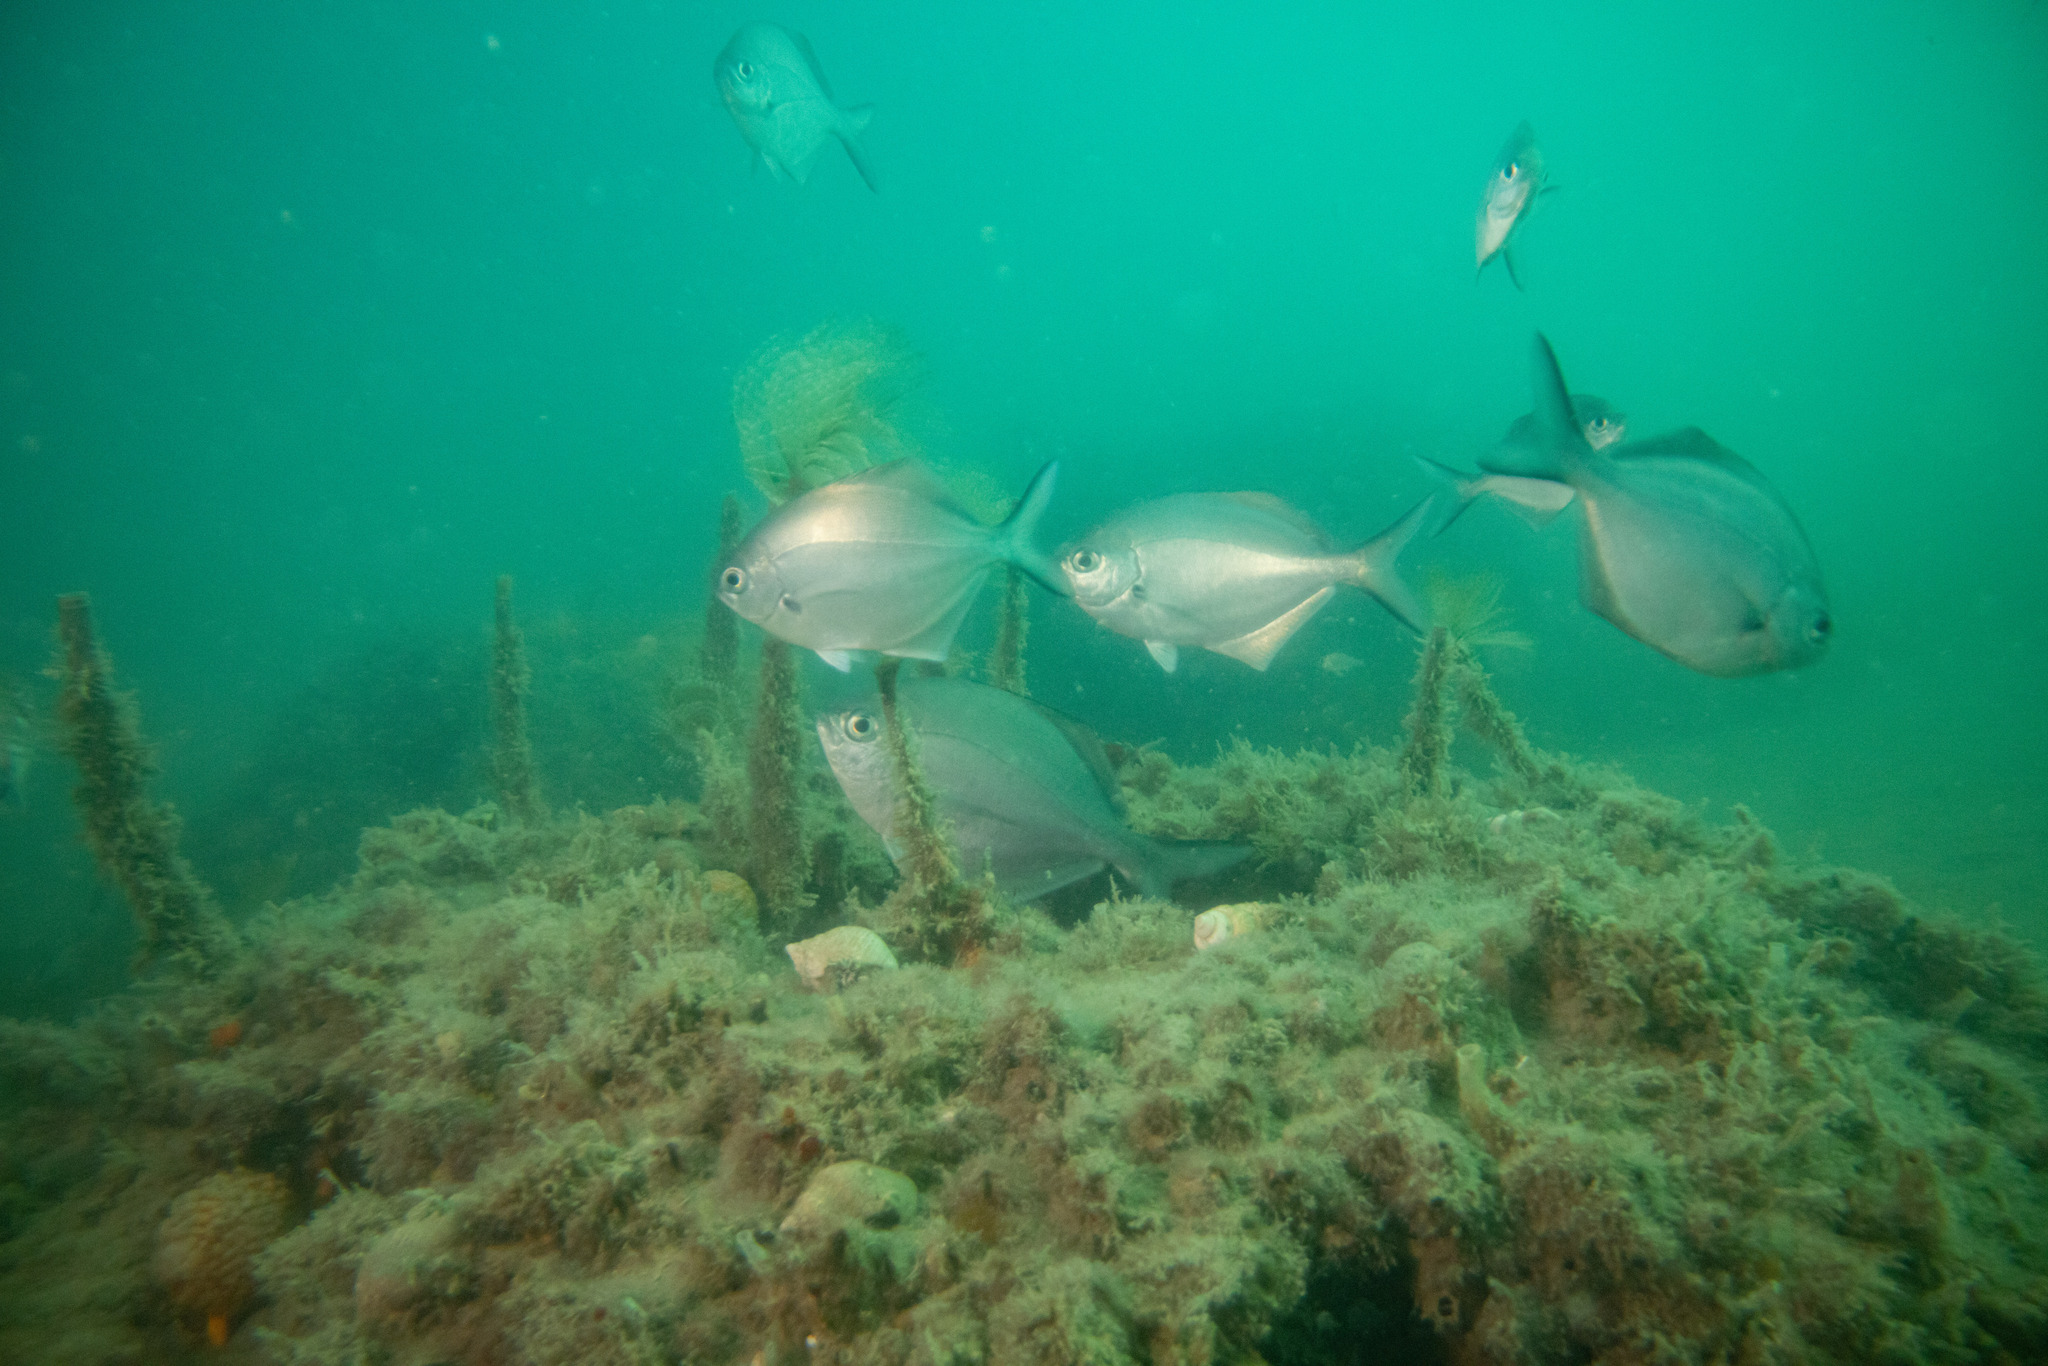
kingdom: Animalia
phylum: Chordata
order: Perciformes
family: Kyphosidae
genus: Scorpis
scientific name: Scorpis lineolata
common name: Sweep
